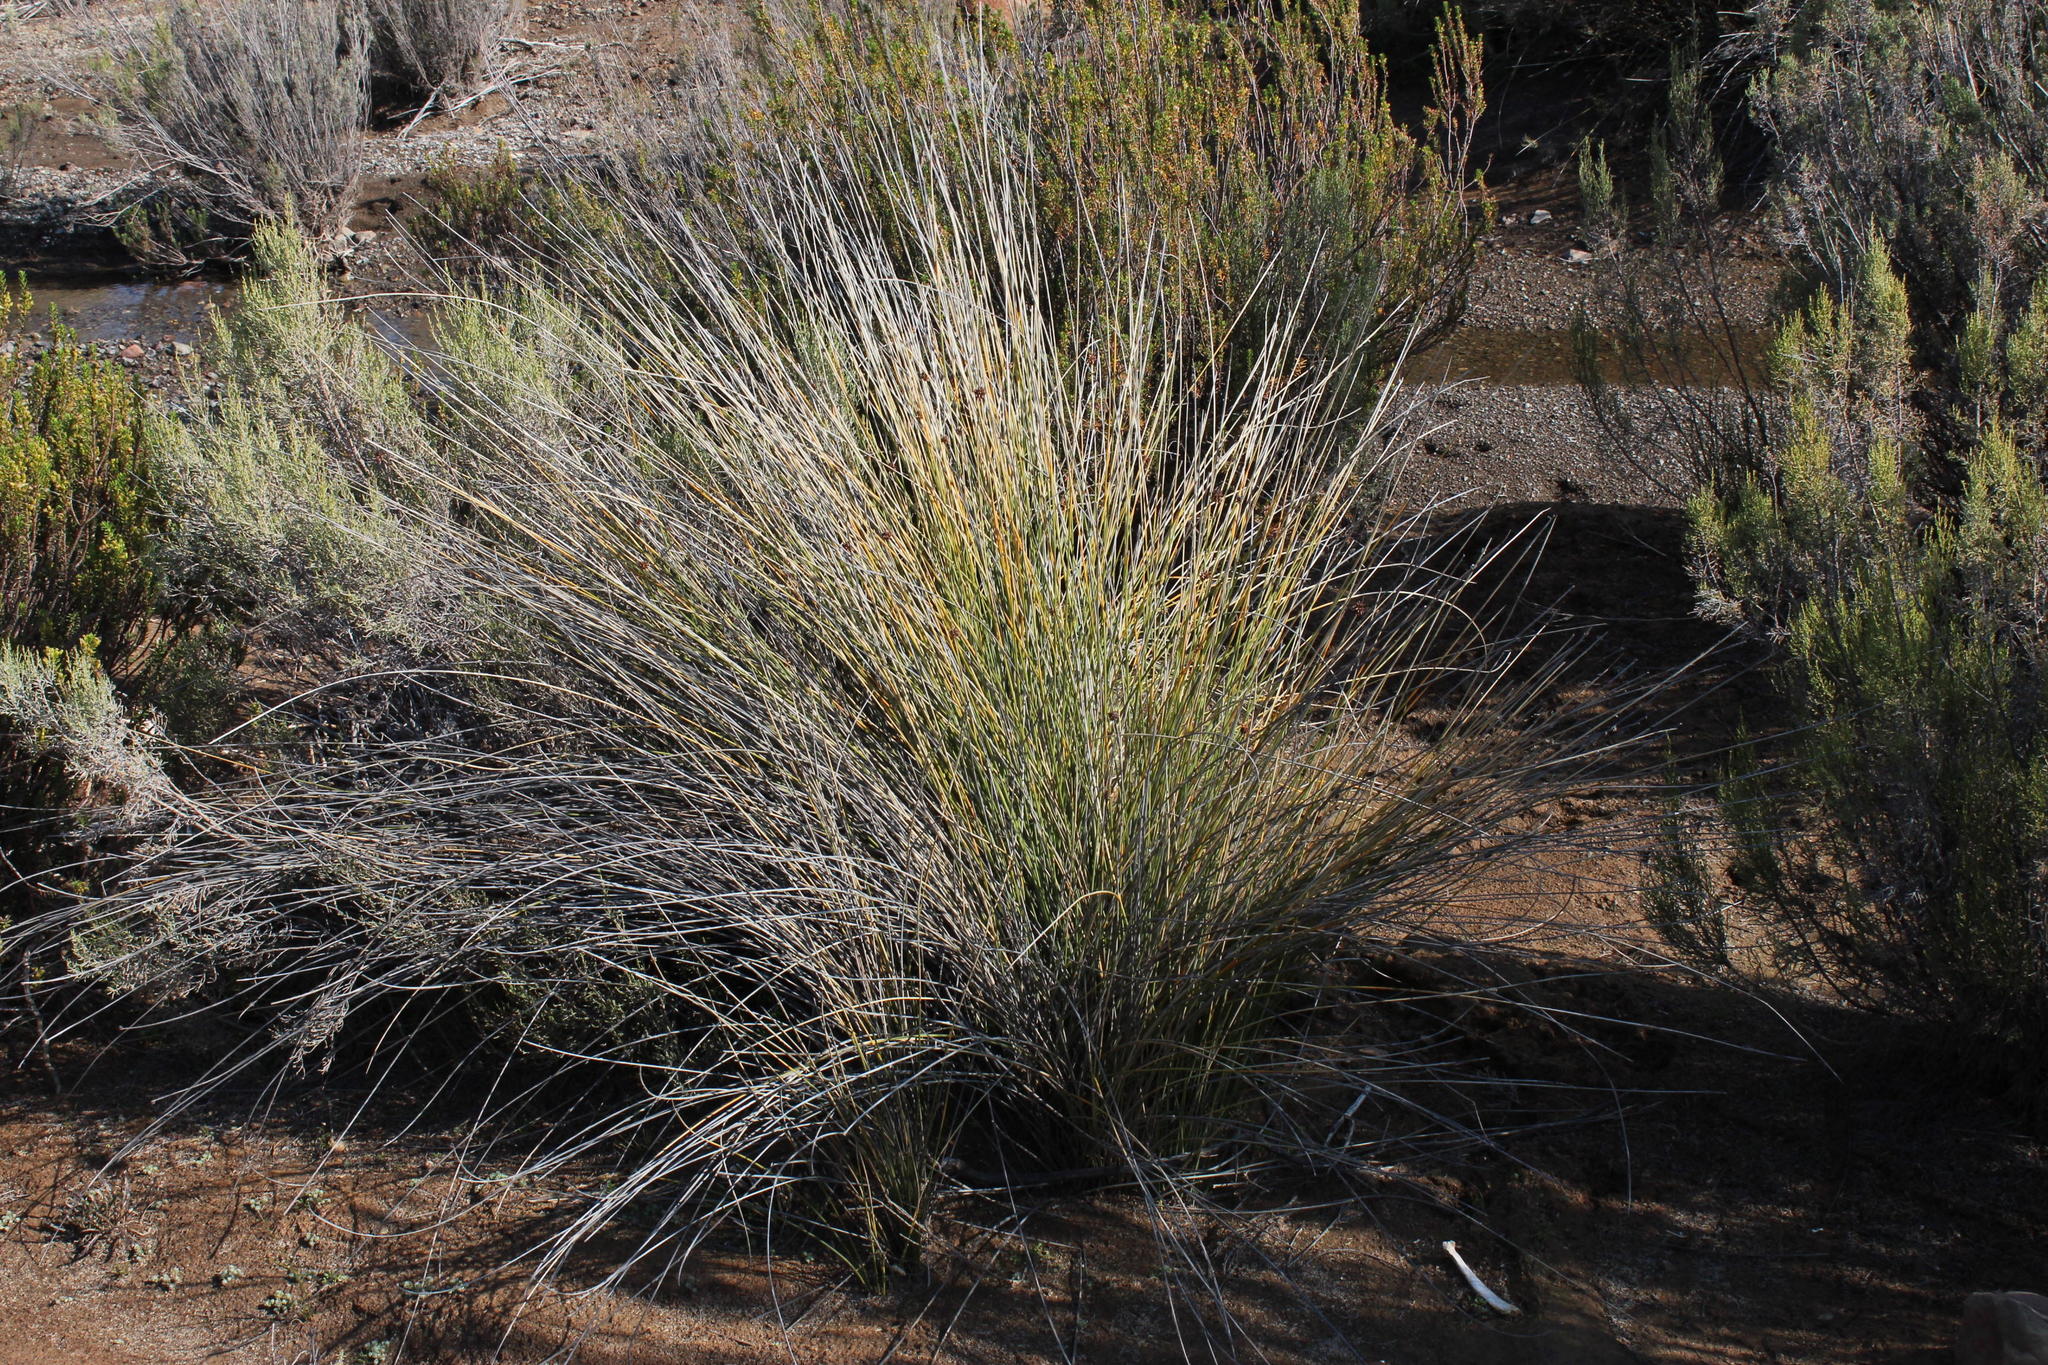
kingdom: Plantae
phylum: Tracheophyta
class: Liliopsida
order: Poales
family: Cyperaceae
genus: Afroscirpoides
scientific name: Afroscirpoides dioeca
